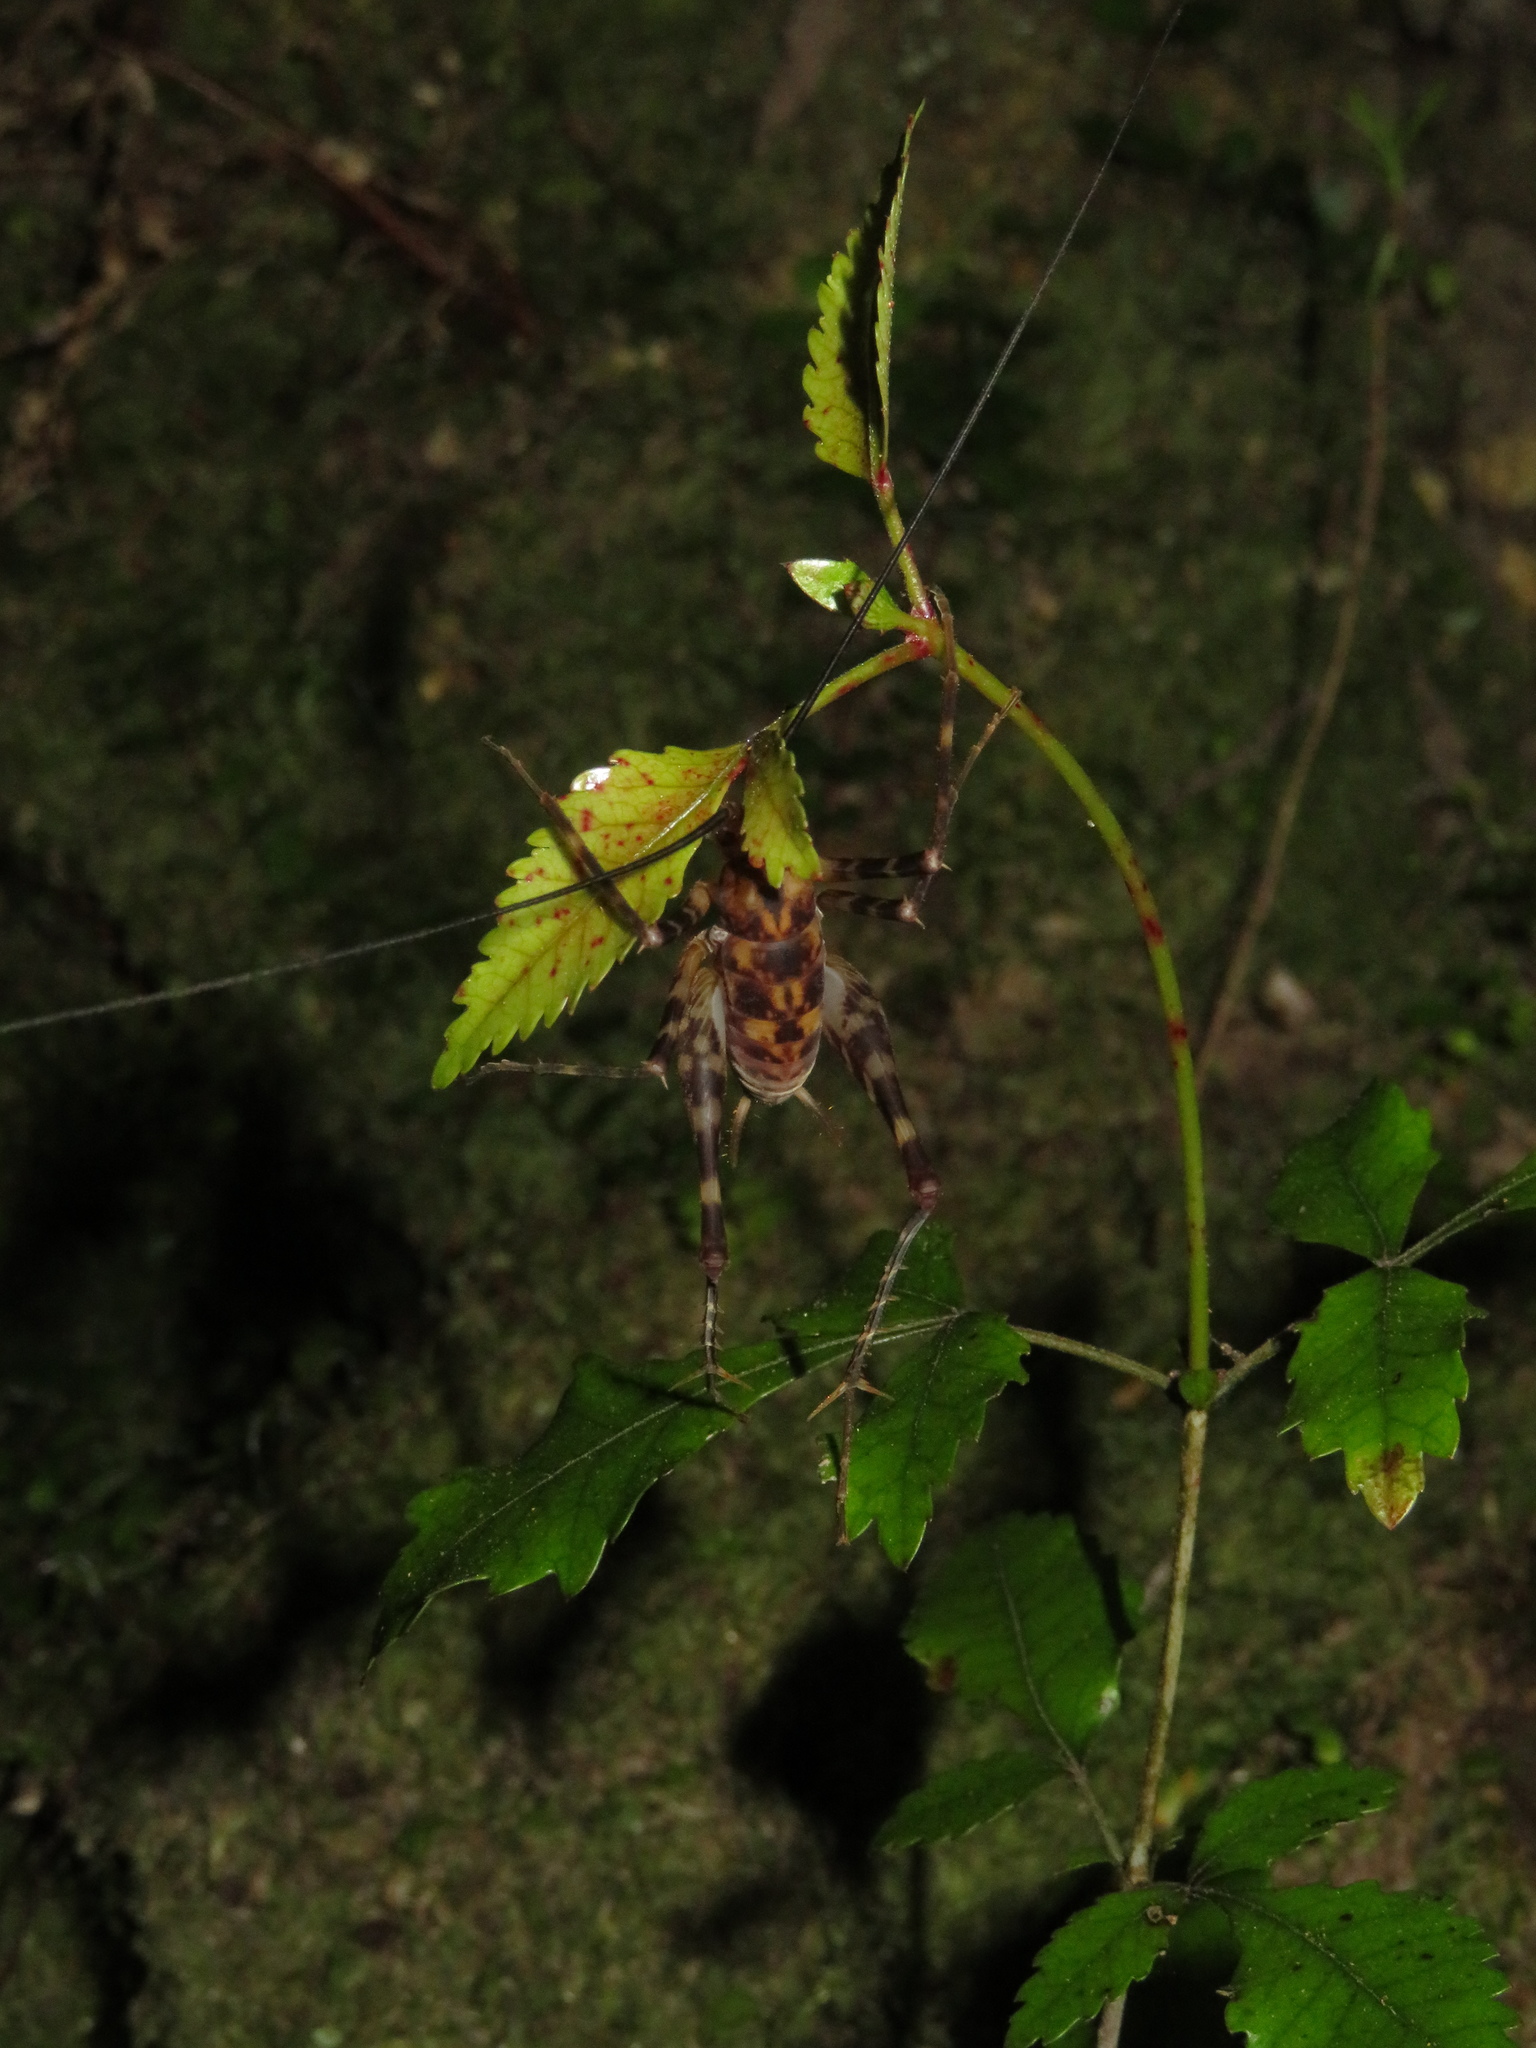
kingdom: Animalia
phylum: Arthropoda
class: Insecta
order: Orthoptera
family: Rhaphidophoridae
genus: Miotopus
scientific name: Miotopus richardsae
